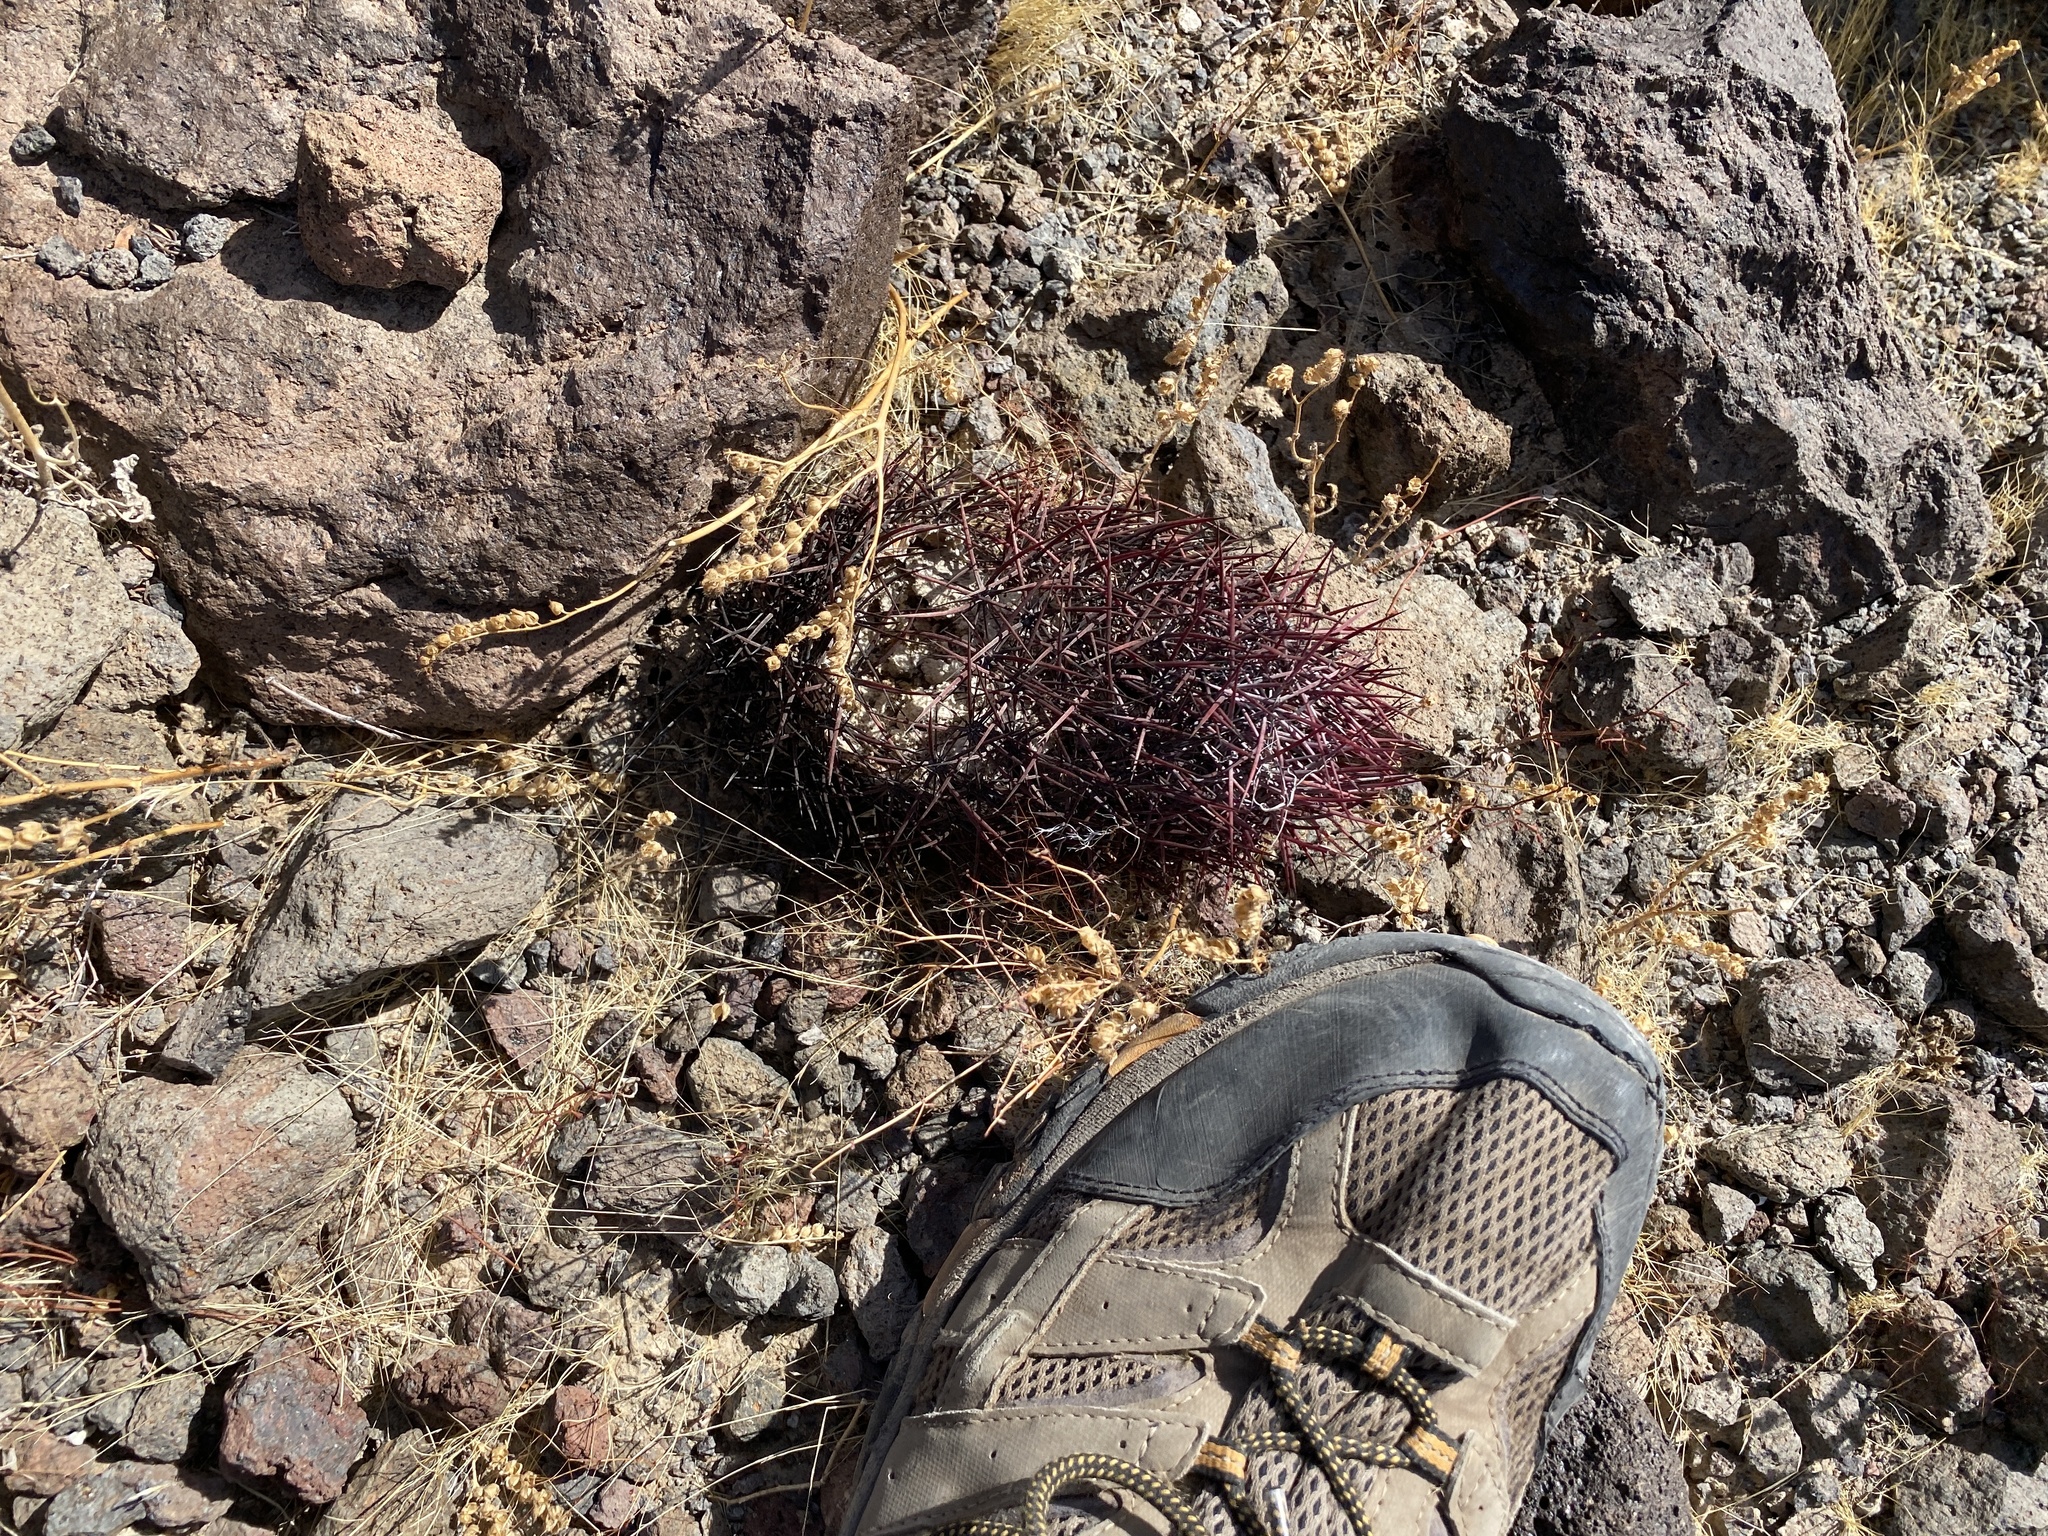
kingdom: Plantae
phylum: Tracheophyta
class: Magnoliopsida
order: Caryophyllales
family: Cactaceae
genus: Sclerocactus
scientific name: Sclerocactus johnsonii
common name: Eight-spine fishhook cactus
